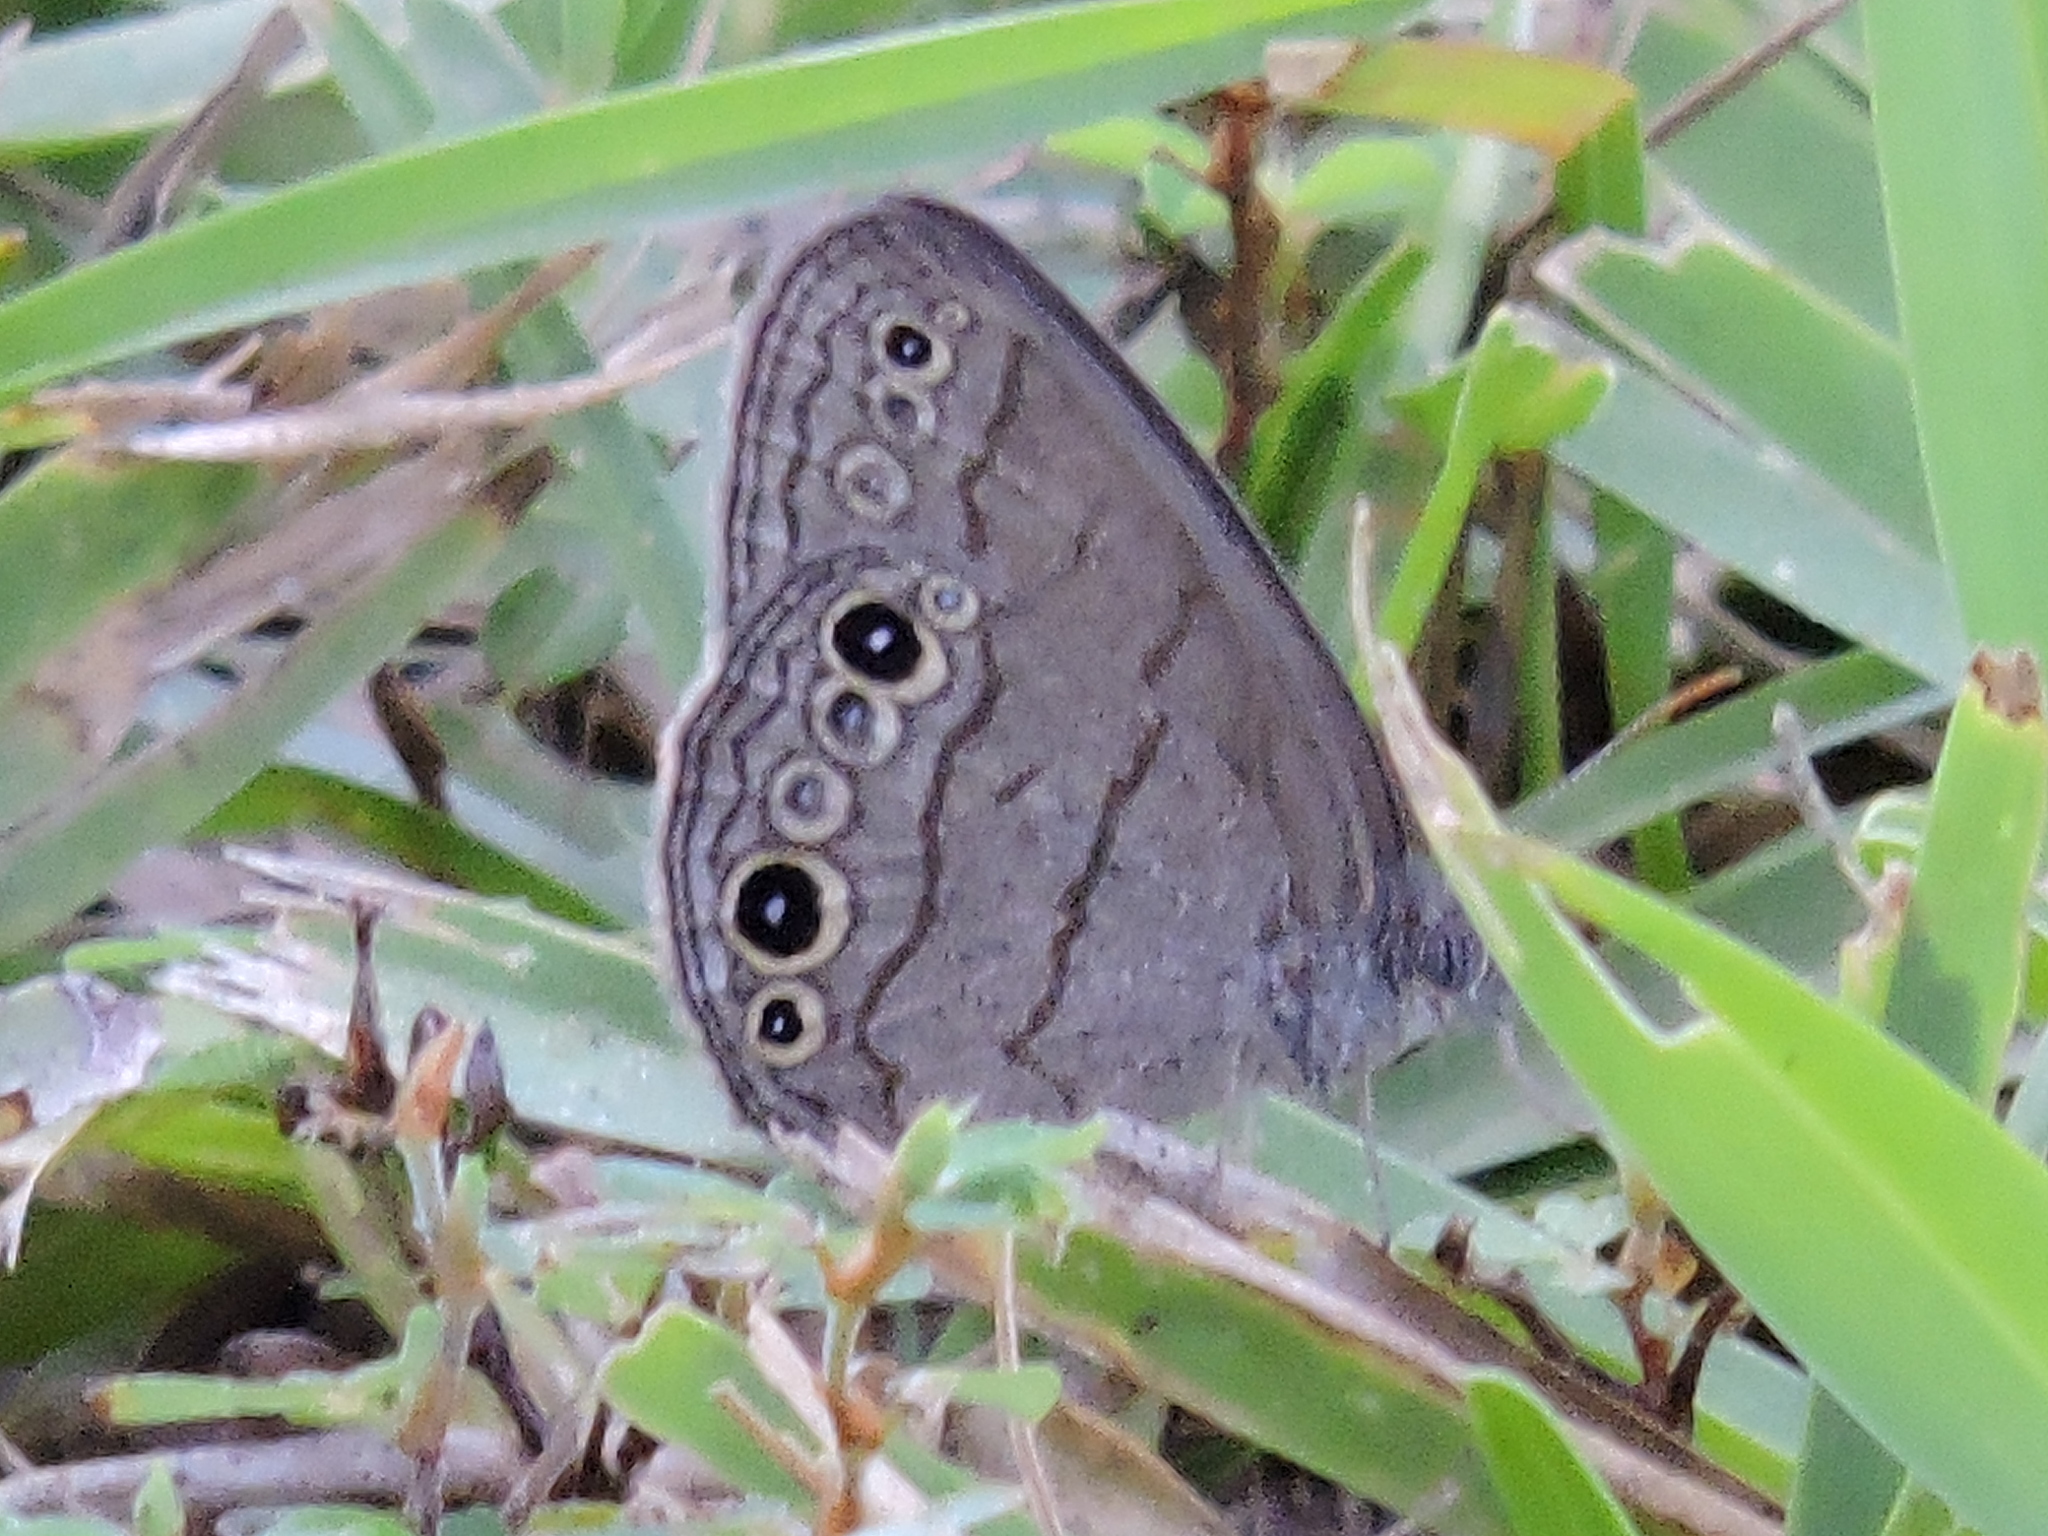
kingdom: Animalia
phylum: Arthropoda
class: Insecta
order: Lepidoptera
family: Nymphalidae
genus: Hermeuptychia
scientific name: Hermeuptychia hermes
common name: Hermes satyr
